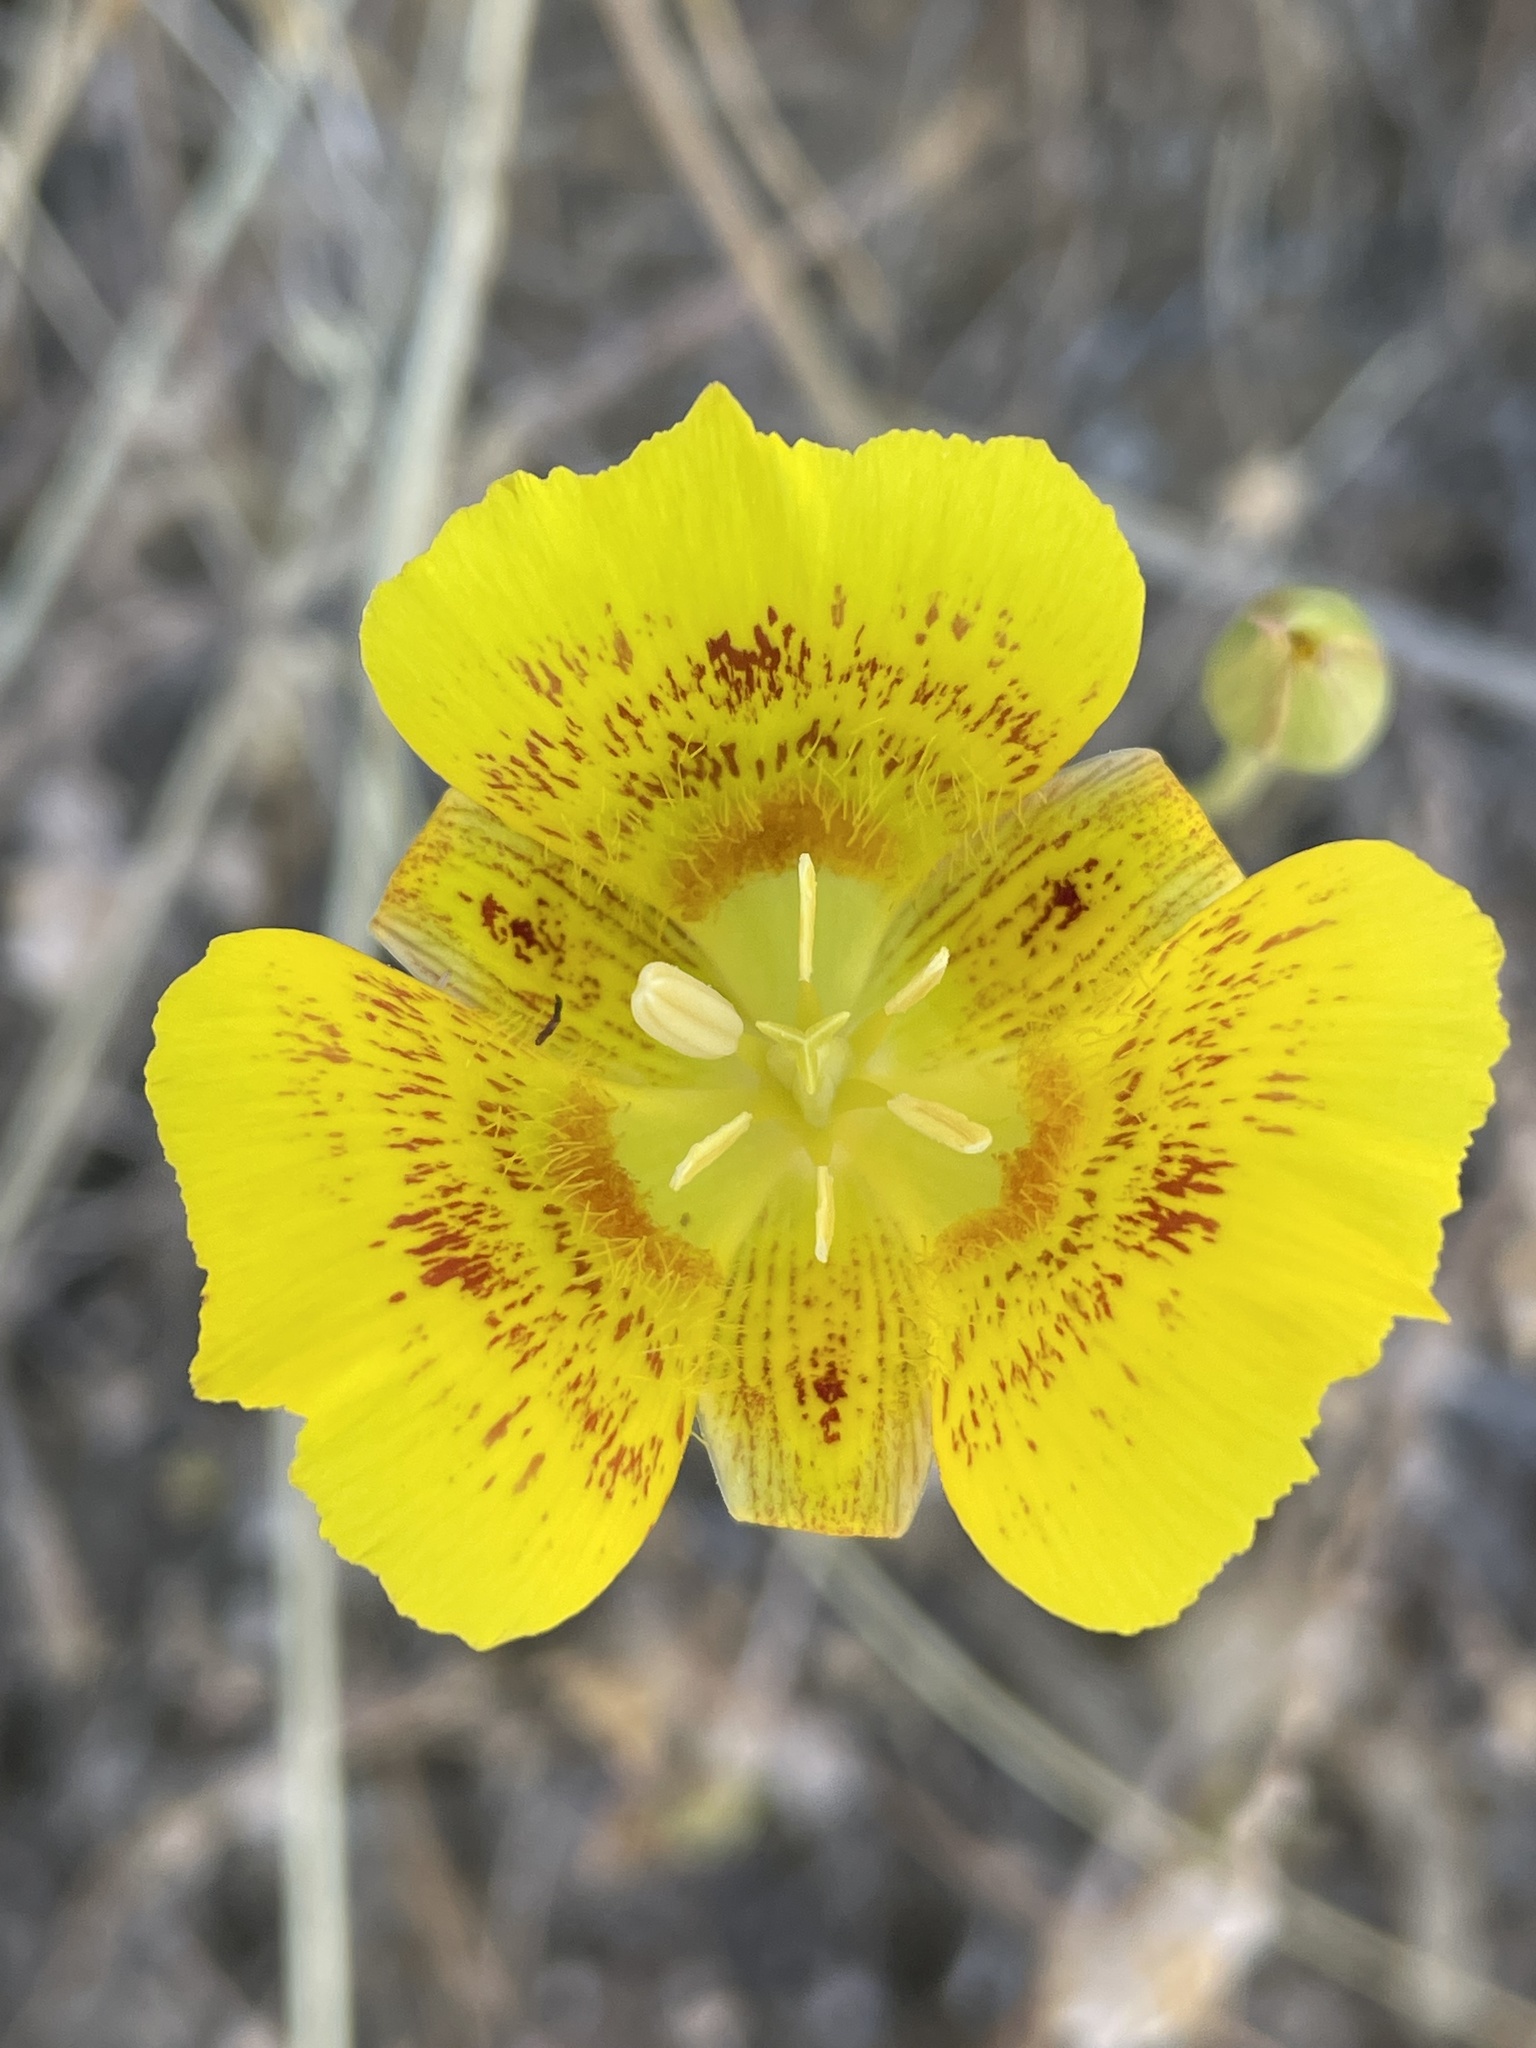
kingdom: Plantae
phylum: Tracheophyta
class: Liliopsida
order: Liliales
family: Liliaceae
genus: Calochortus
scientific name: Calochortus luteus
